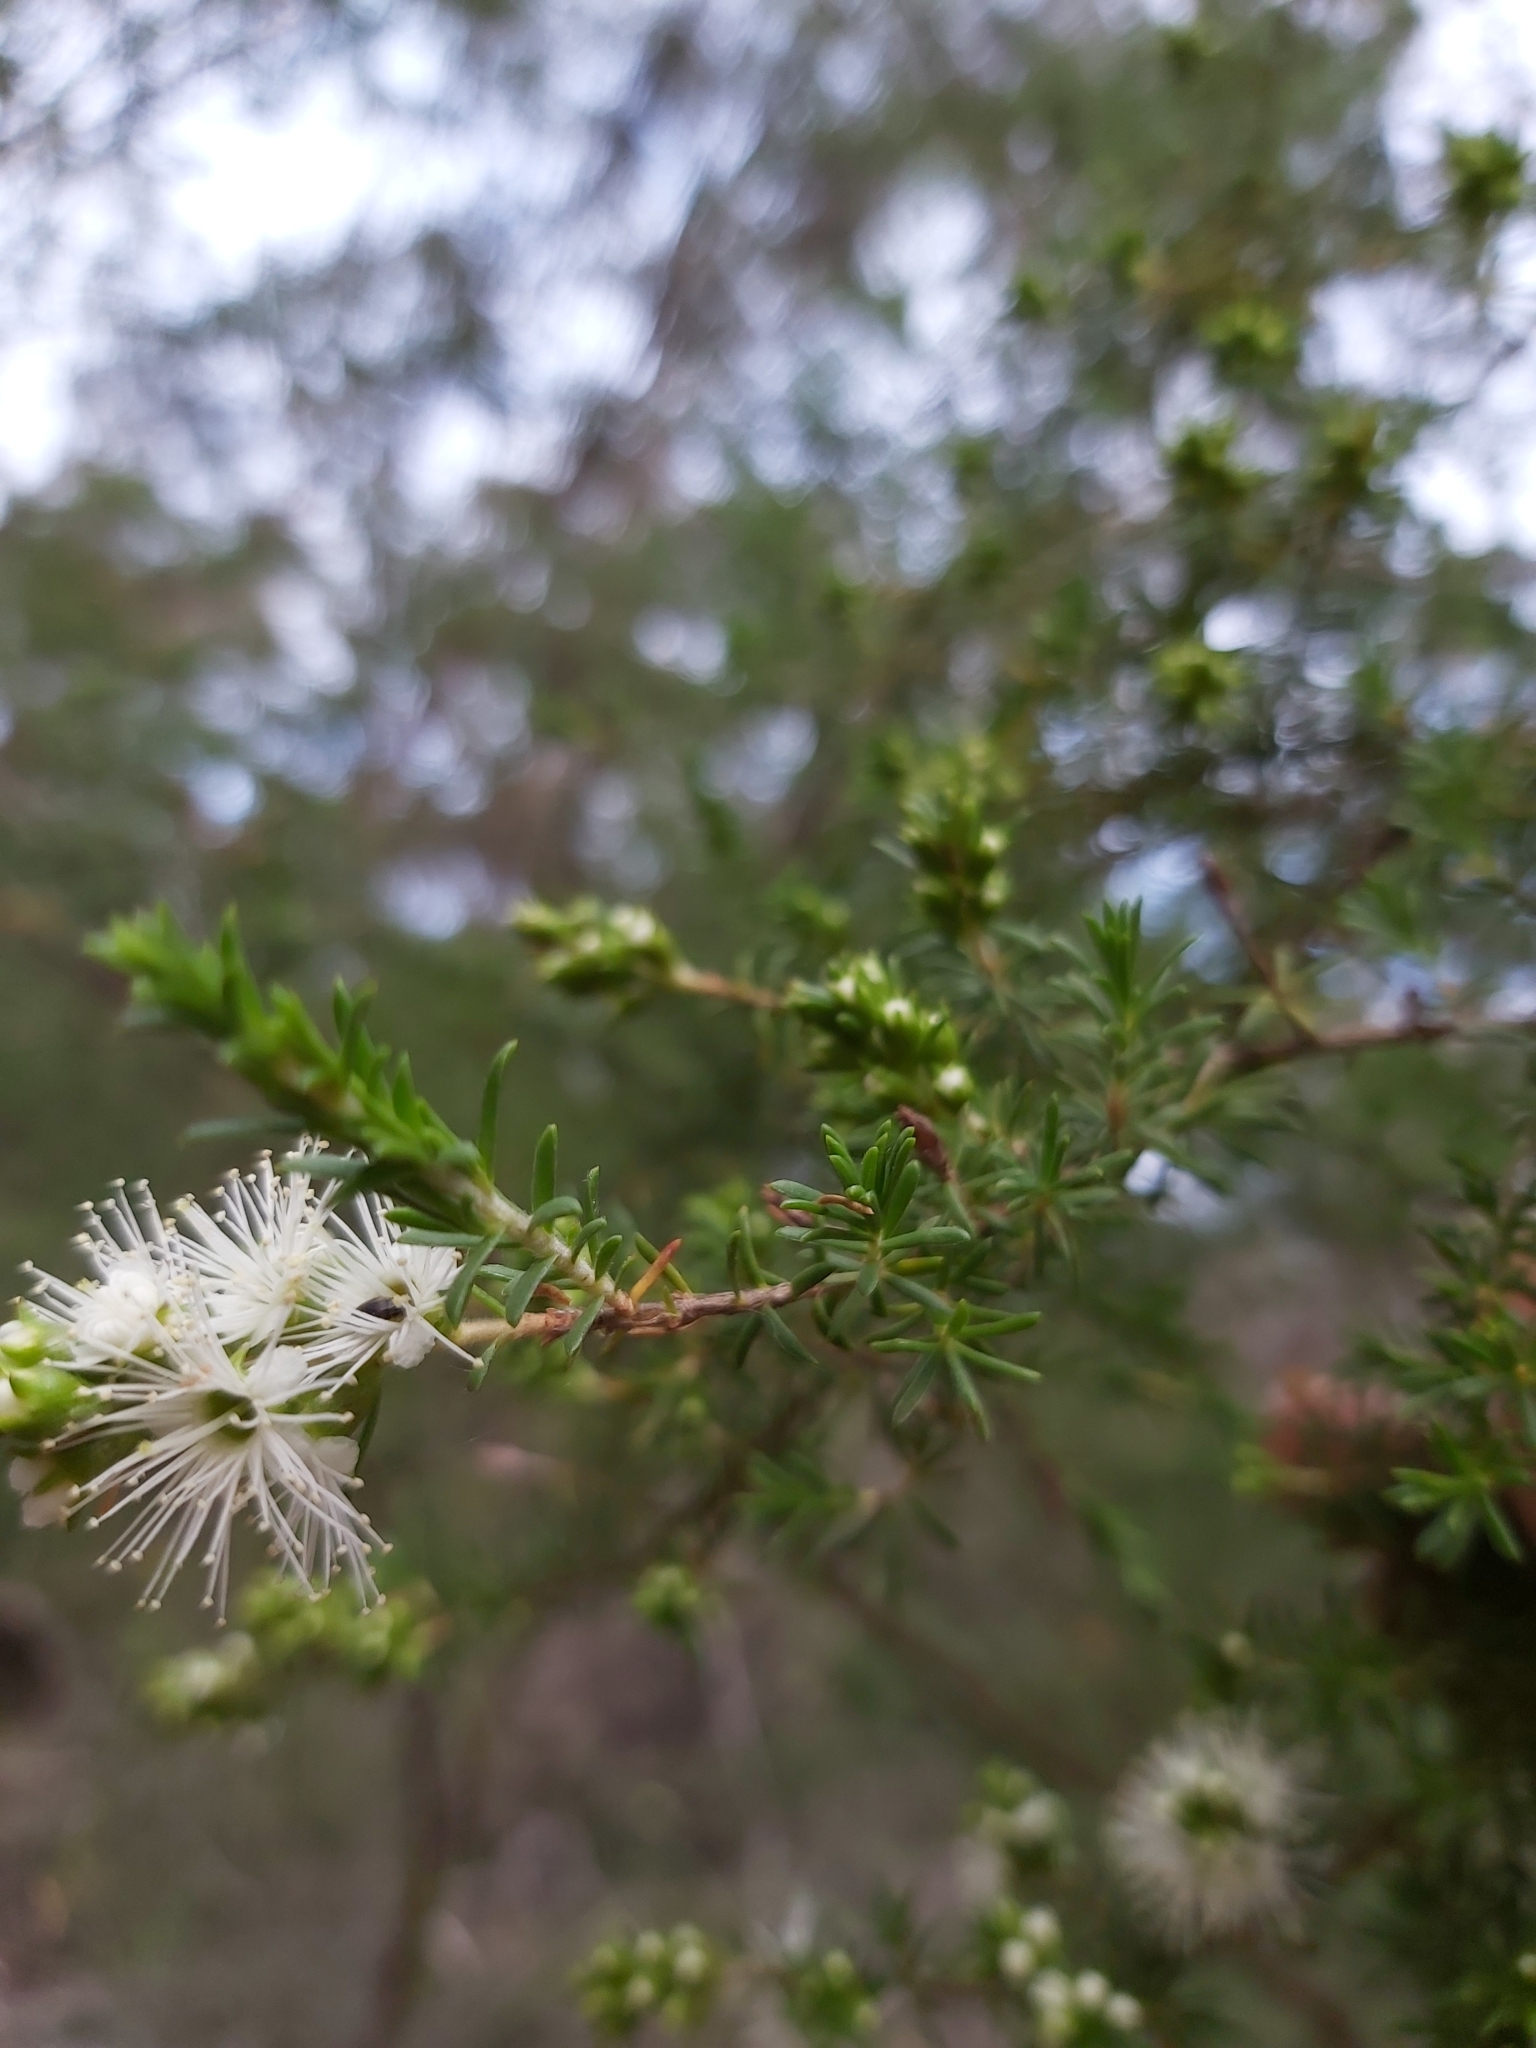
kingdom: Plantae
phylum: Tracheophyta
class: Magnoliopsida
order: Myrtales
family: Myrtaceae
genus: Kunzea
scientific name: Kunzea ambigua
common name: Tickbush
